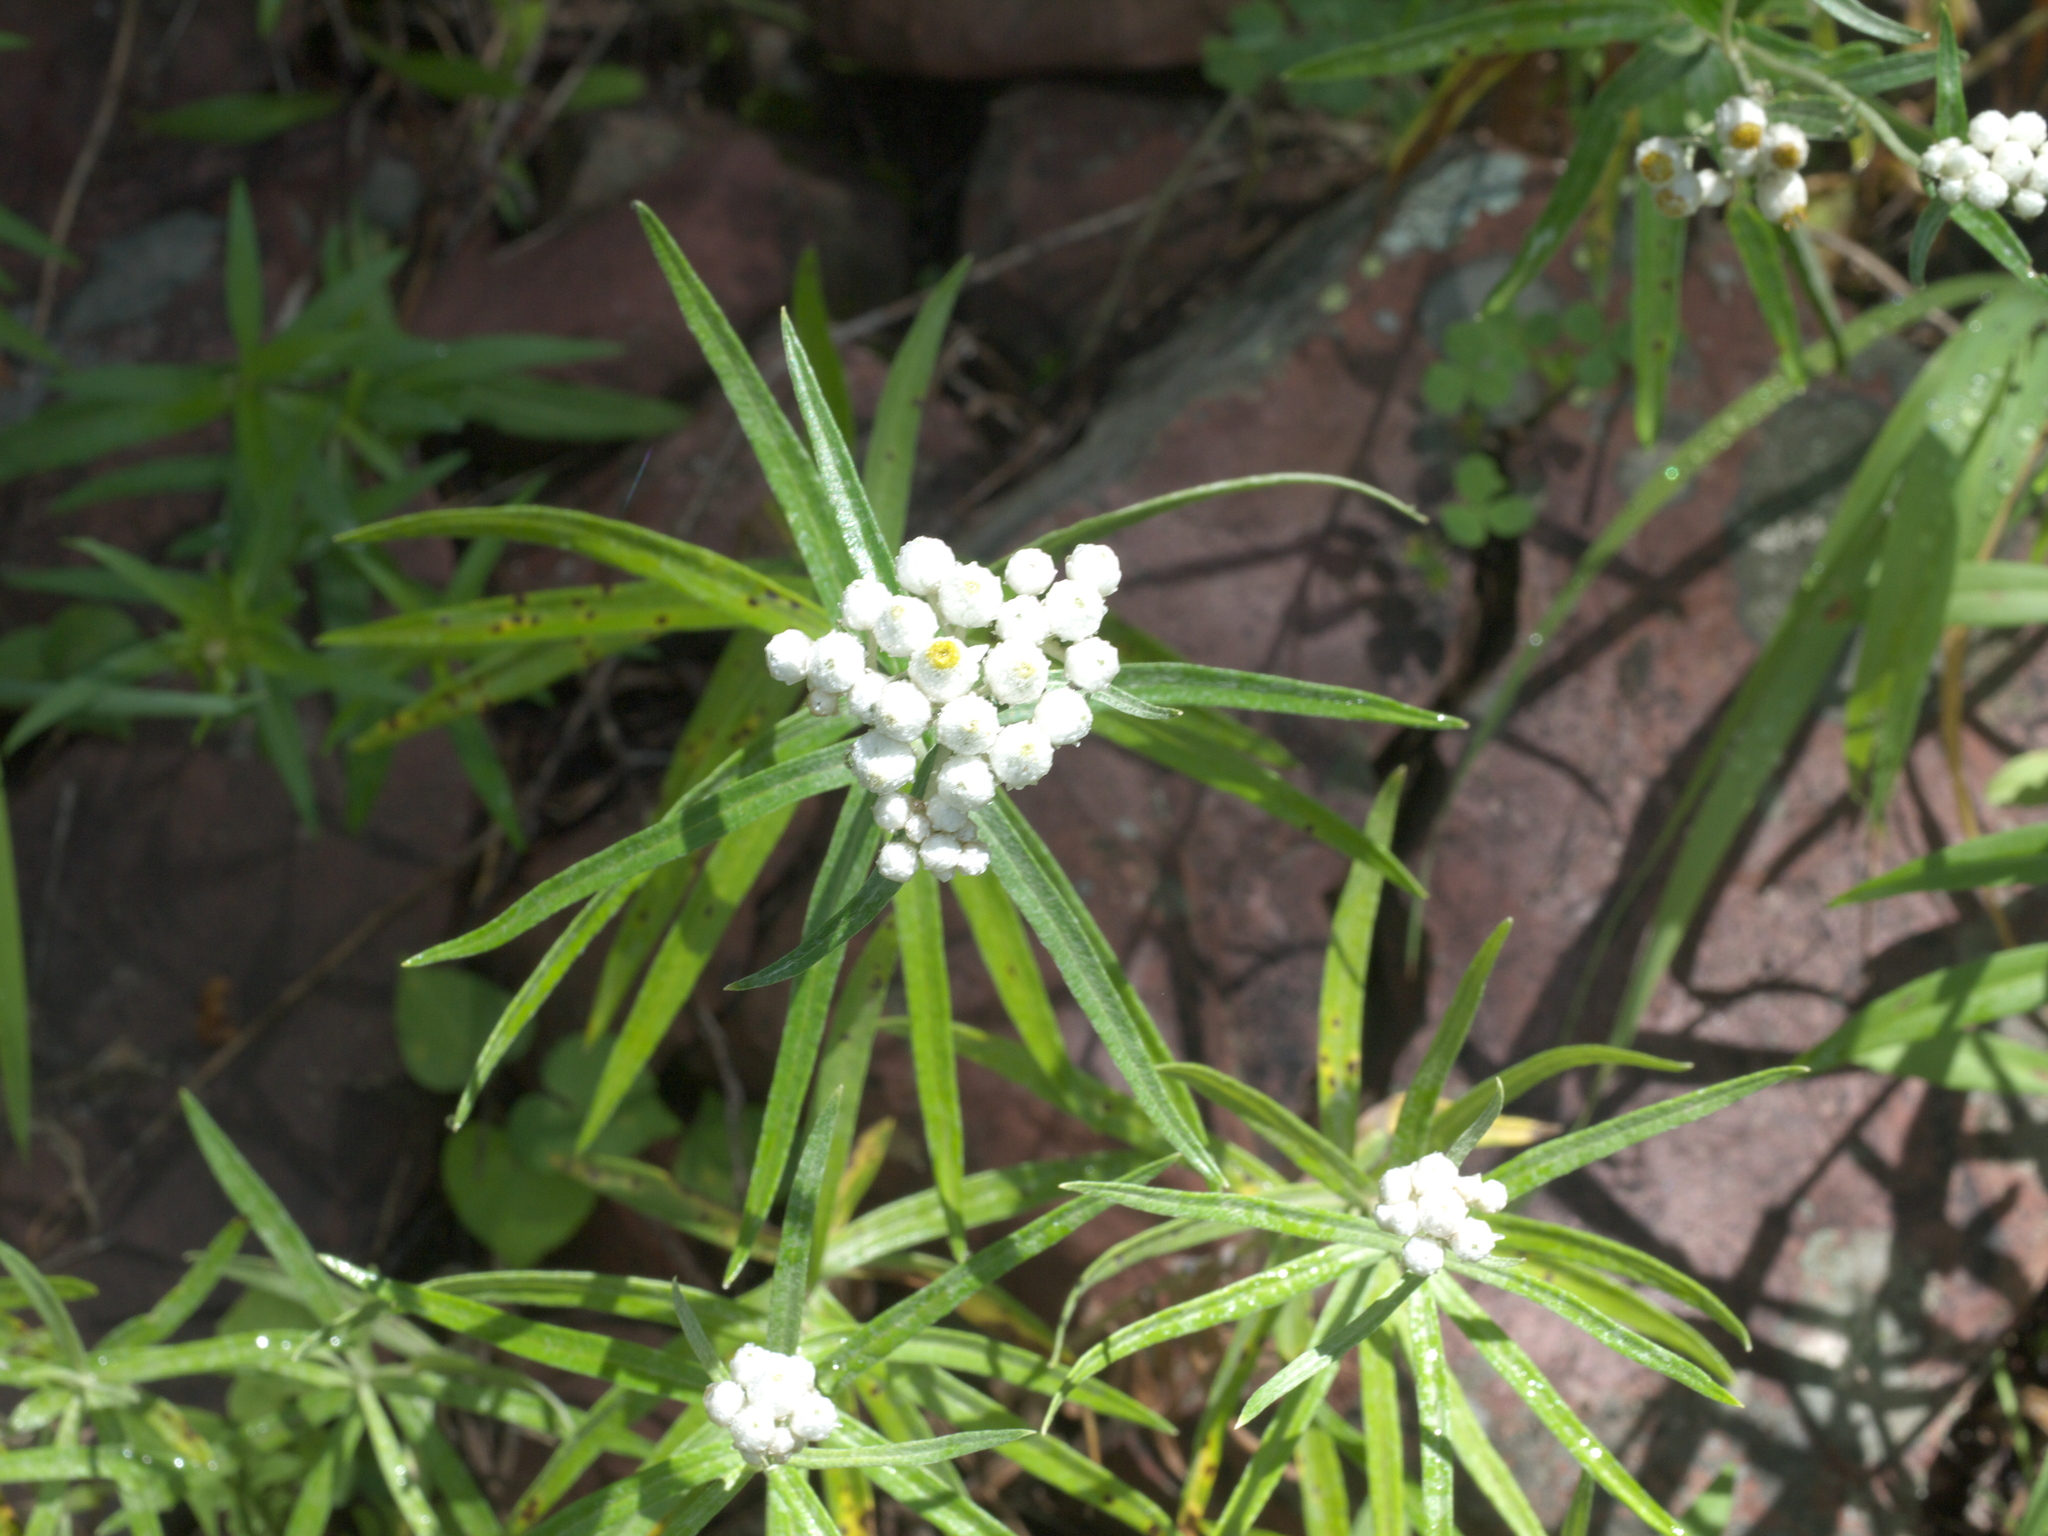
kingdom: Plantae
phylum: Tracheophyta
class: Magnoliopsida
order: Asterales
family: Asteraceae
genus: Anaphalis
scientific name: Anaphalis margaritacea
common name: Pearly everlasting
